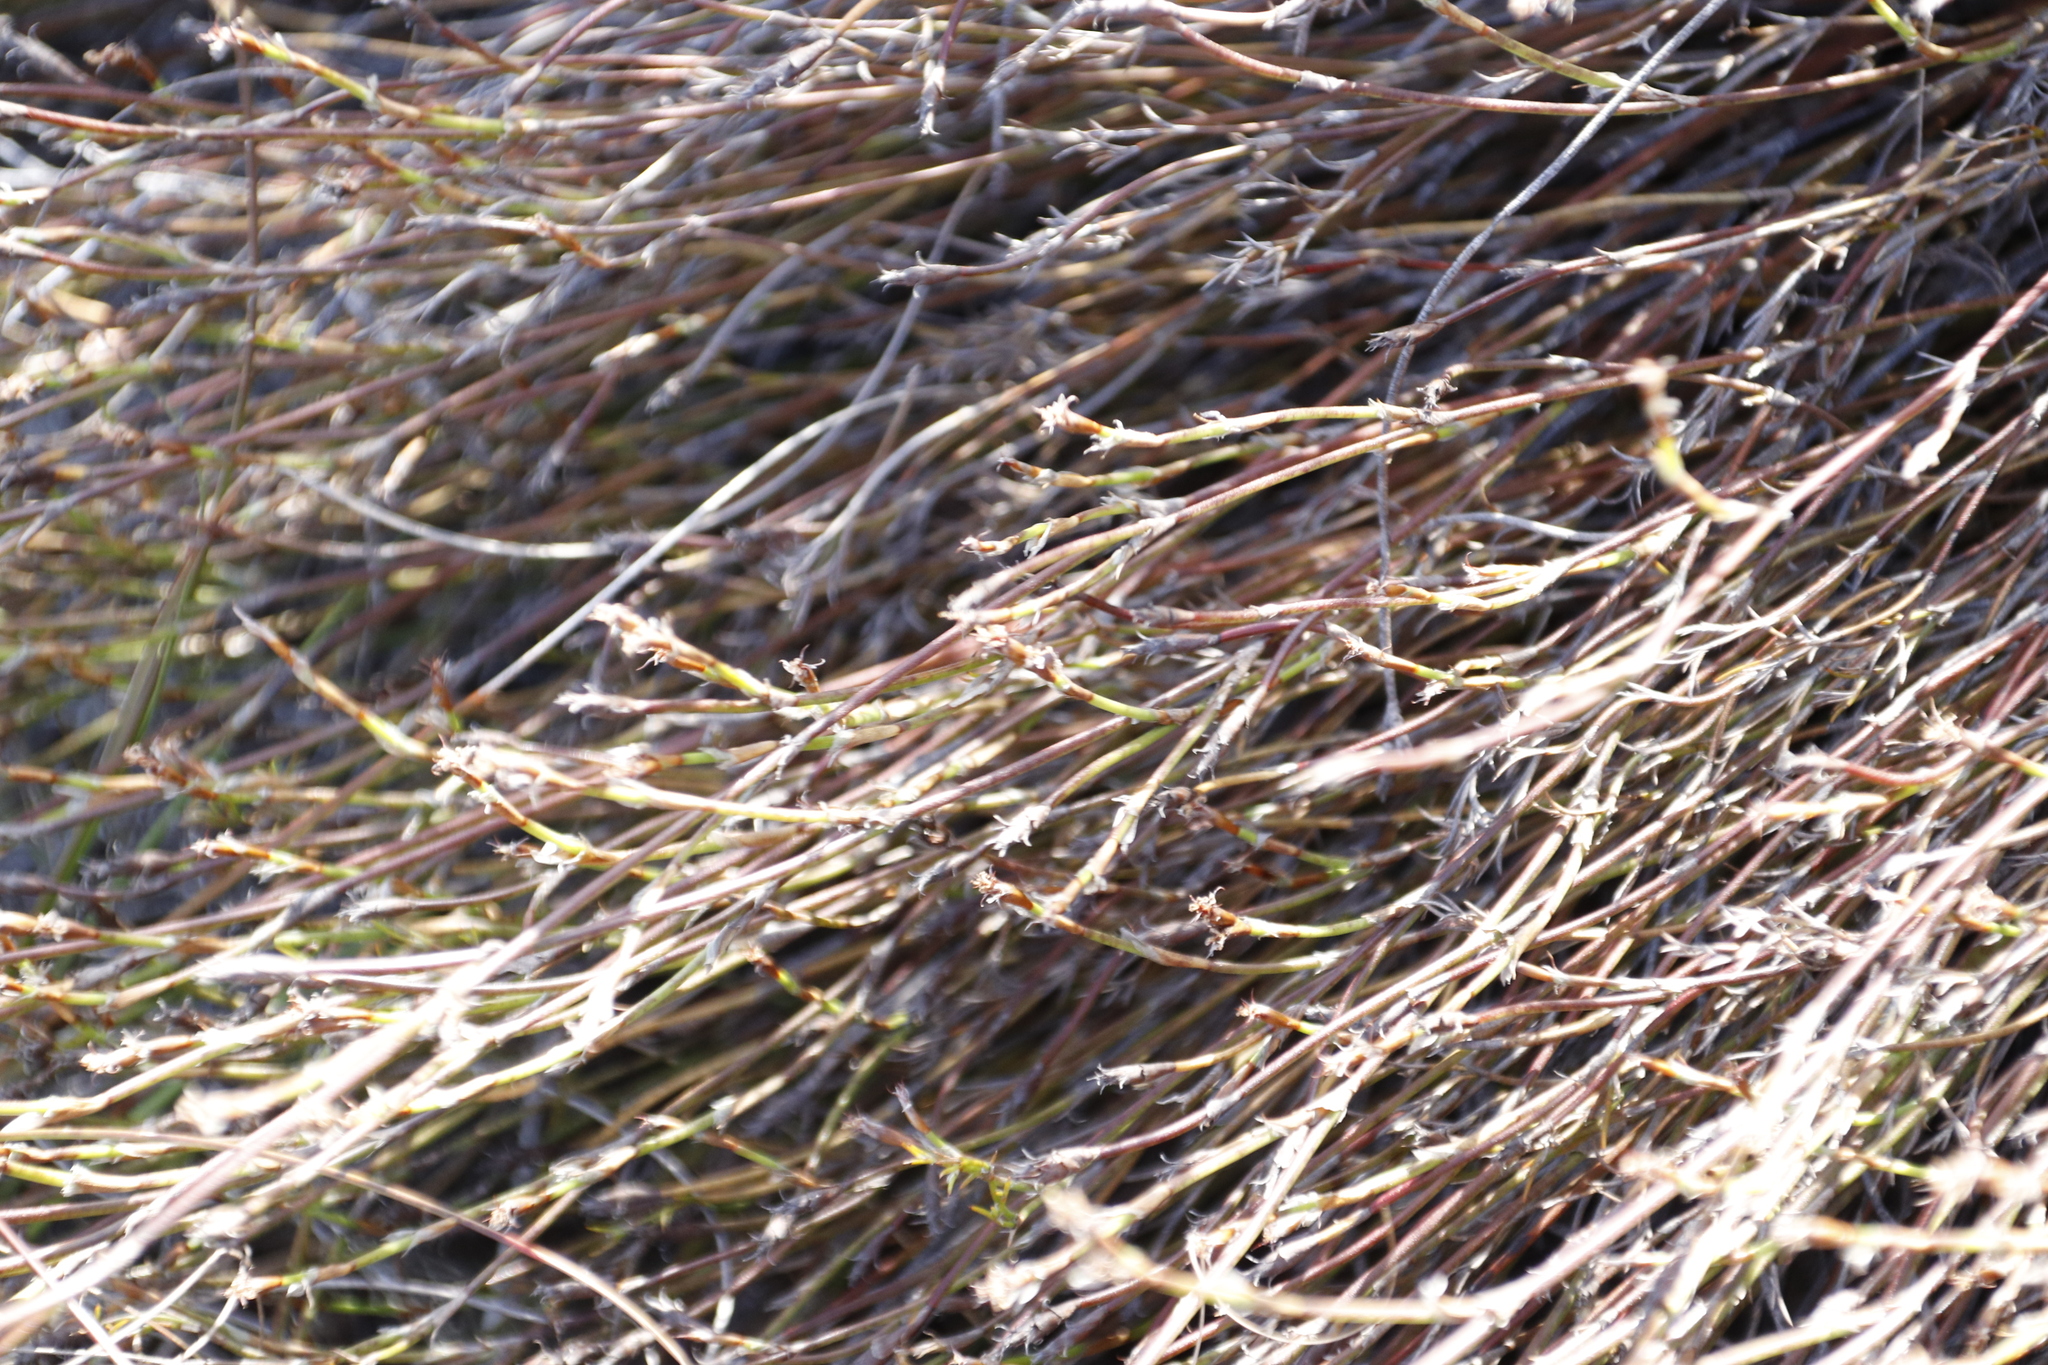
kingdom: Plantae
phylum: Tracheophyta
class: Liliopsida
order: Poales
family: Restionaceae
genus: Restio
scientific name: Restio capensis
